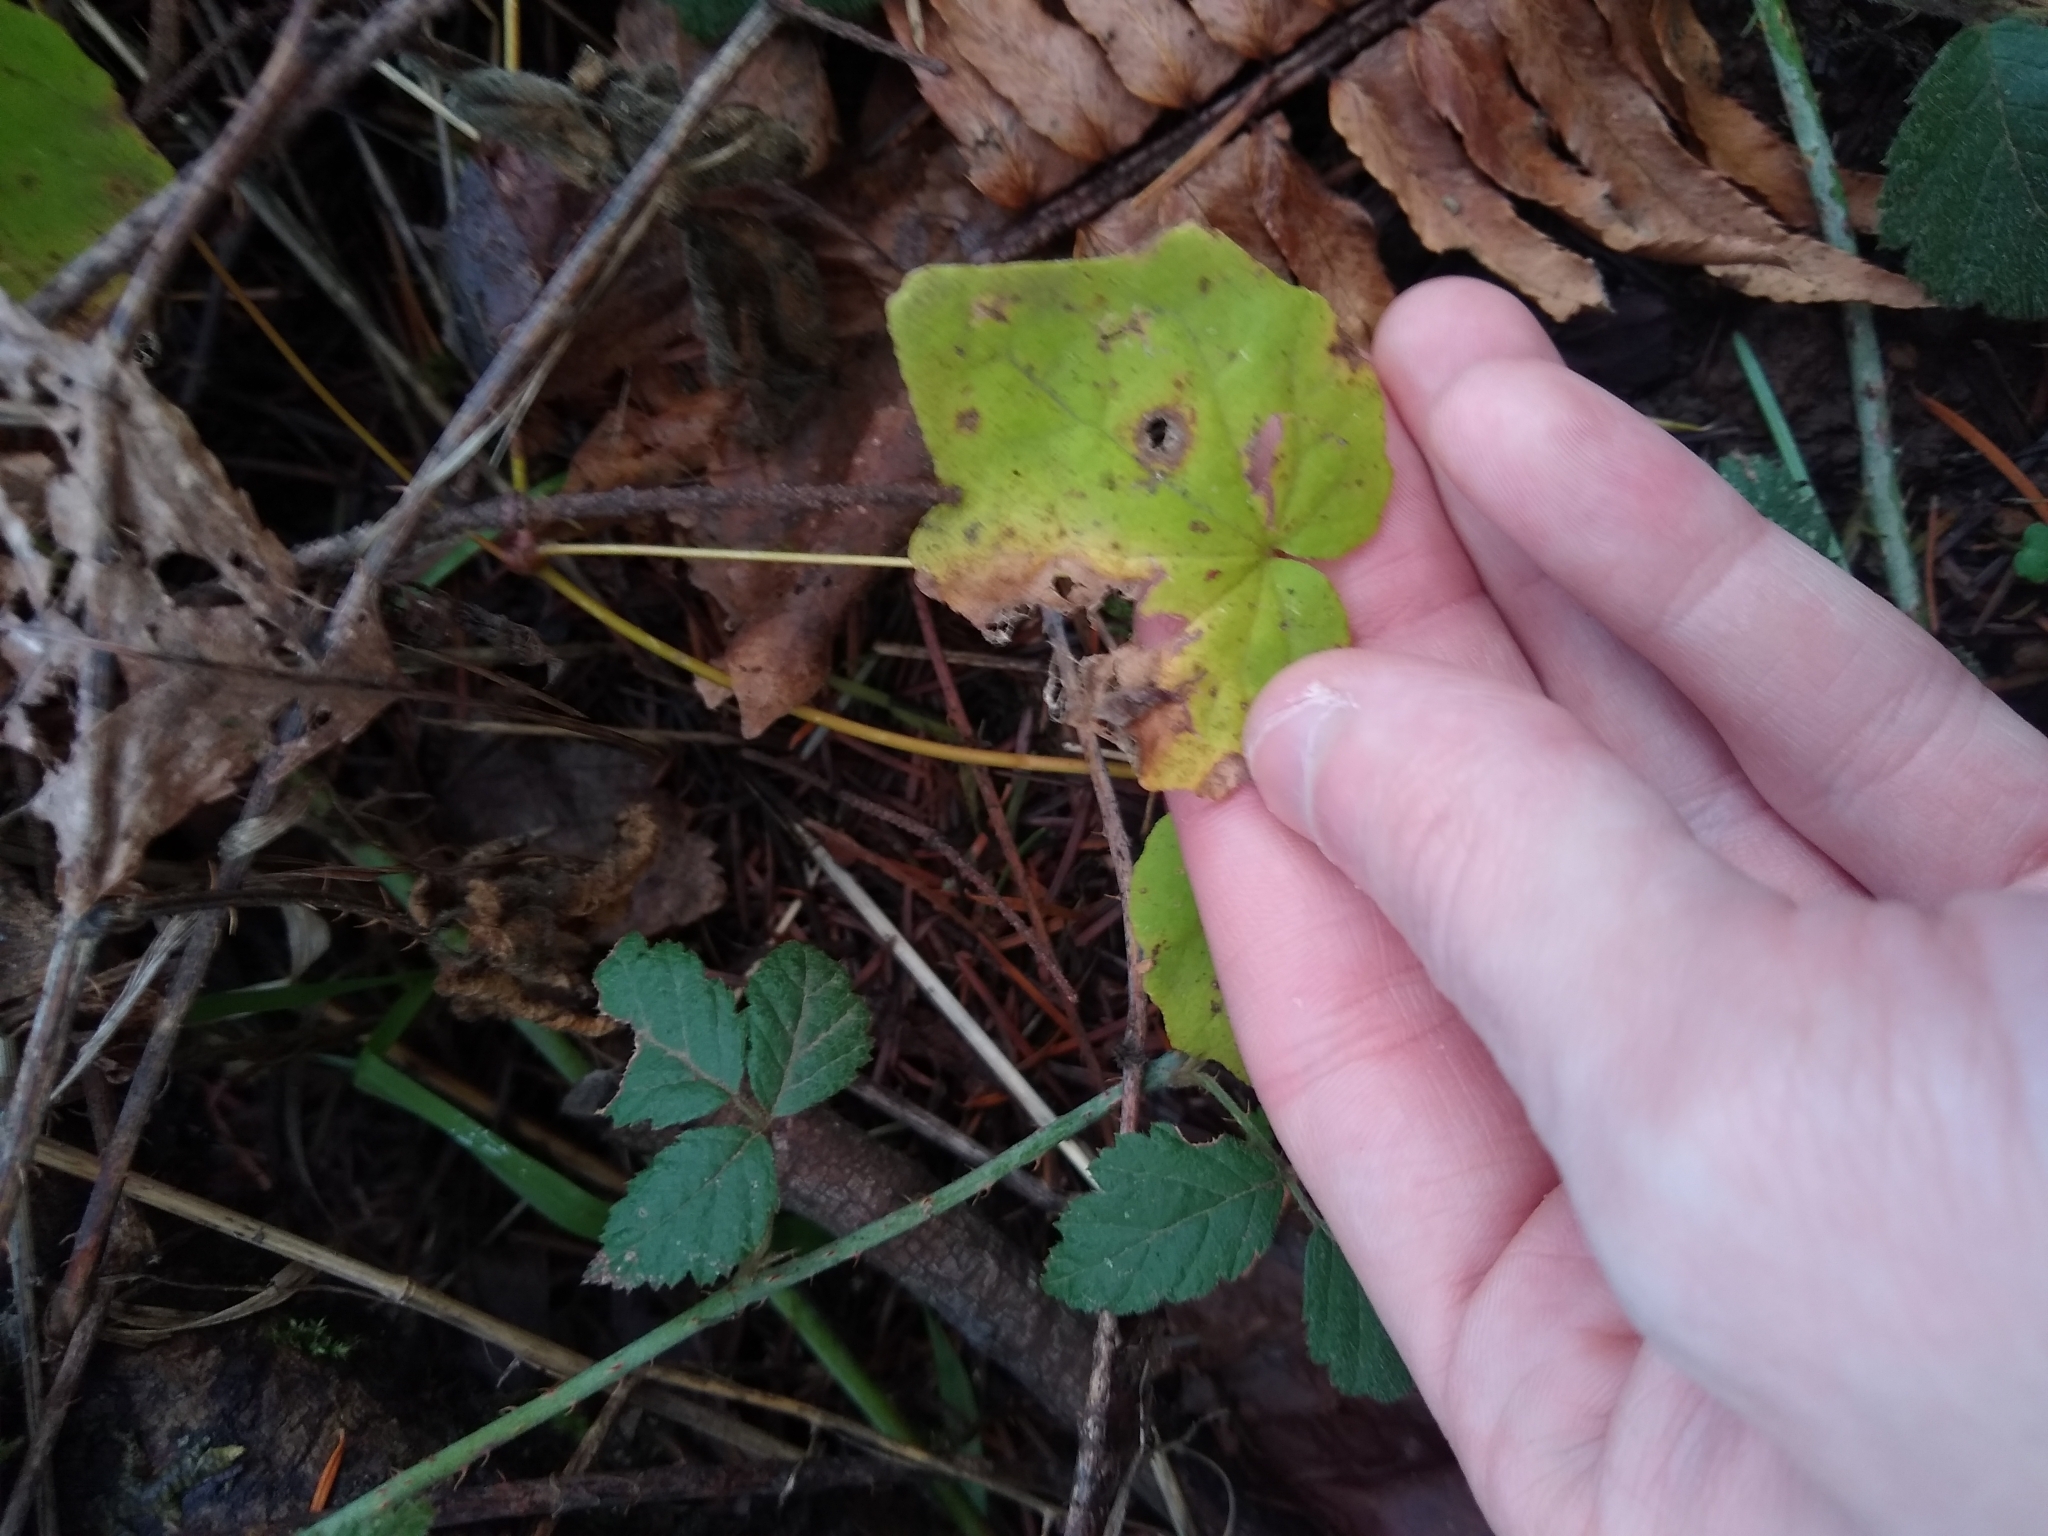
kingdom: Plantae
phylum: Tracheophyta
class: Magnoliopsida
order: Ranunculales
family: Berberidaceae
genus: Vancouveria
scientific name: Vancouveria hexandra
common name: Northern inside-out-flower
